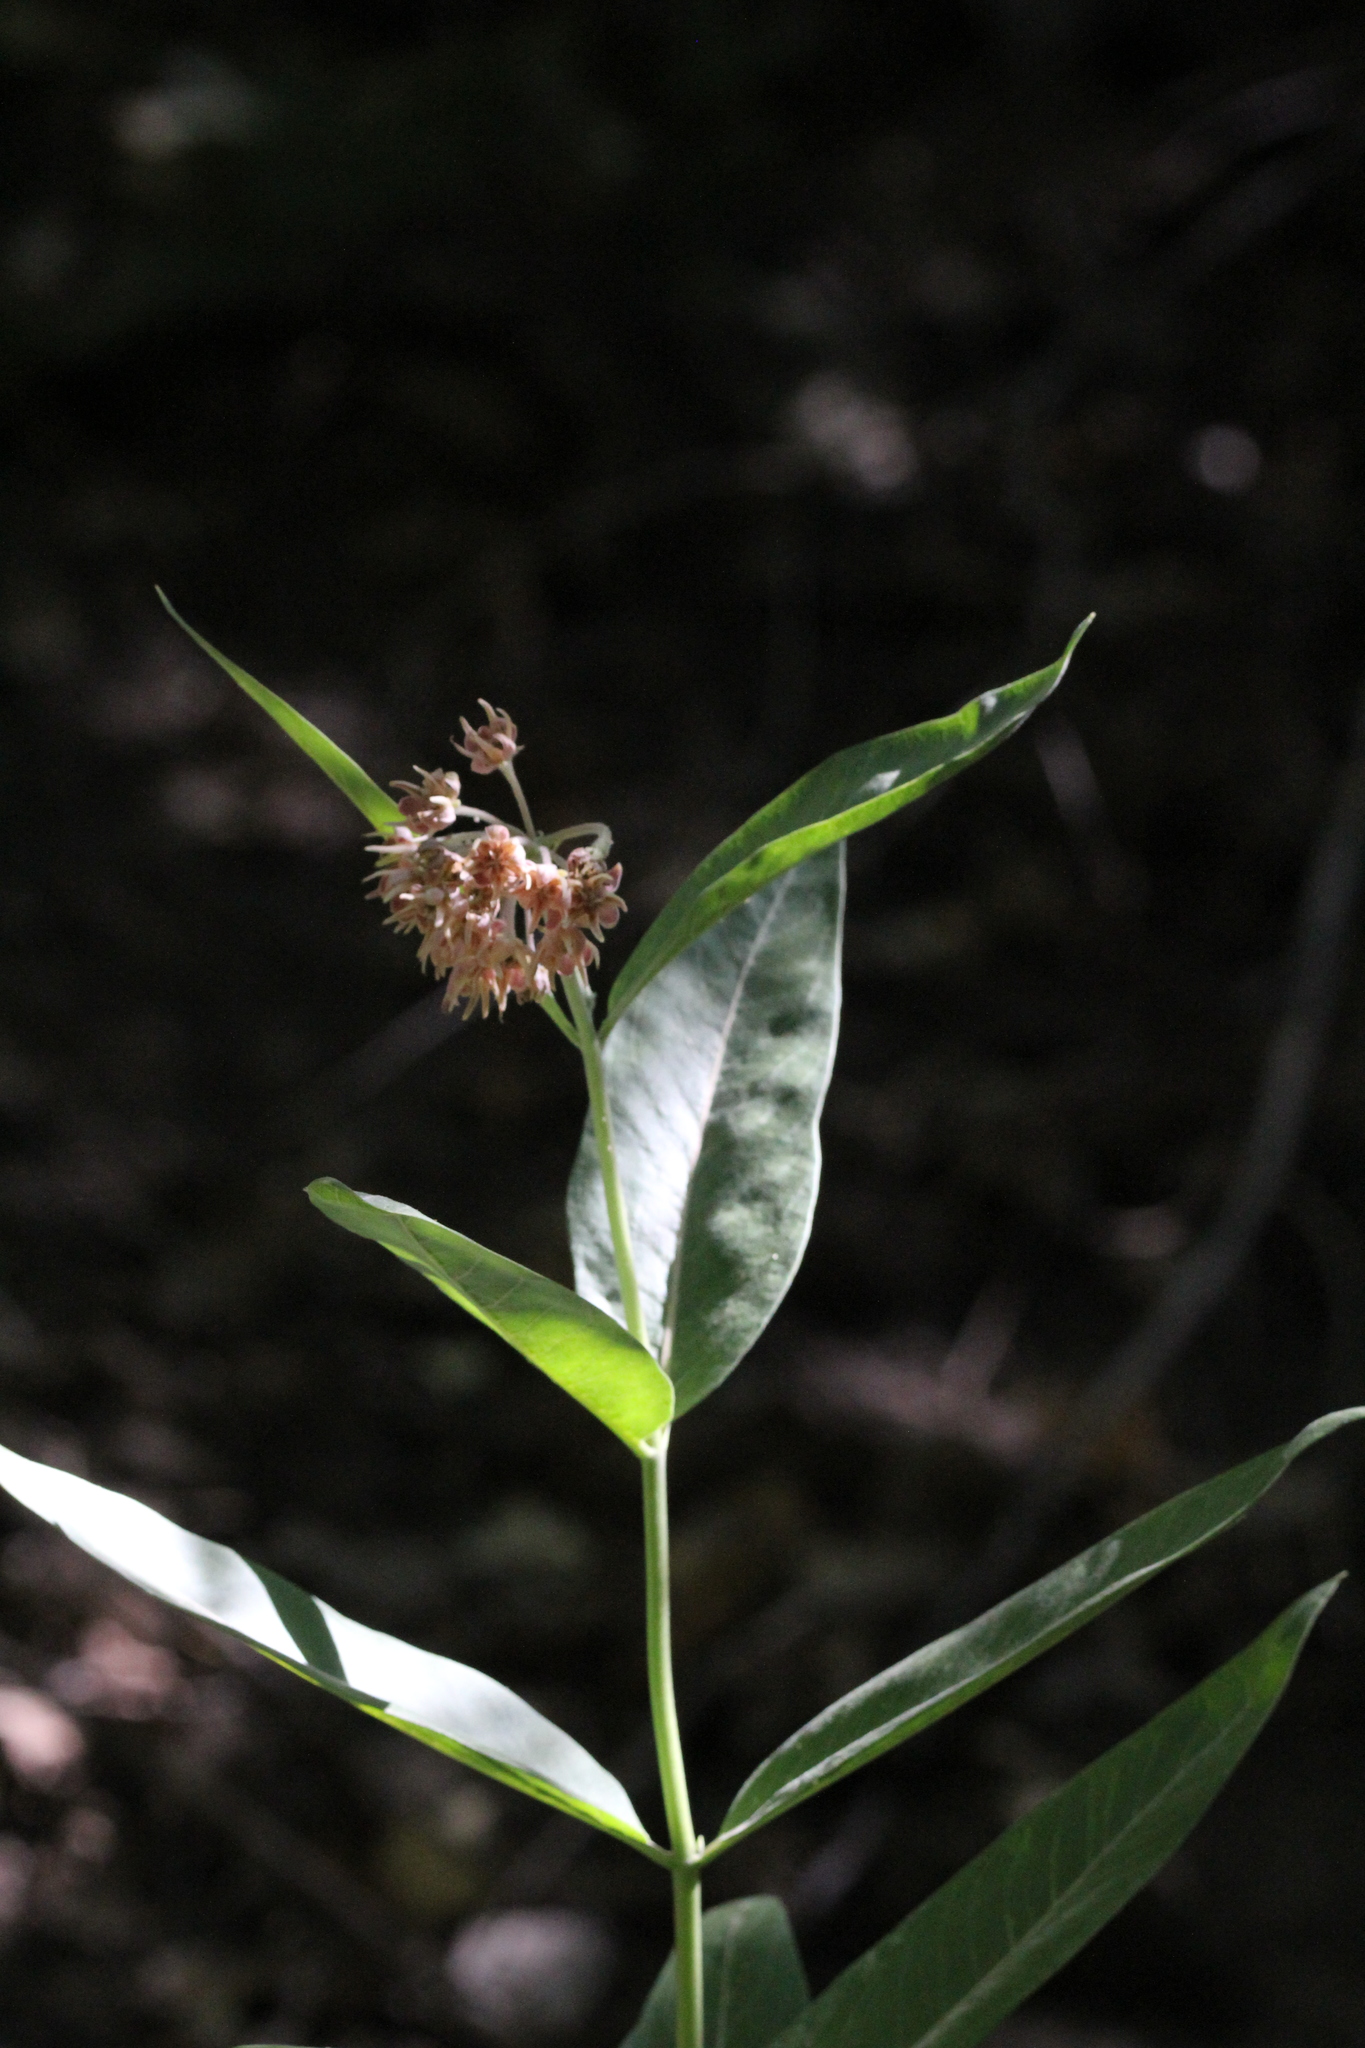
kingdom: Plantae
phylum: Tracheophyta
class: Magnoliopsida
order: Gentianales
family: Apocynaceae
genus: Asclepias
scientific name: Asclepias speciosa
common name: Showy milkweed
